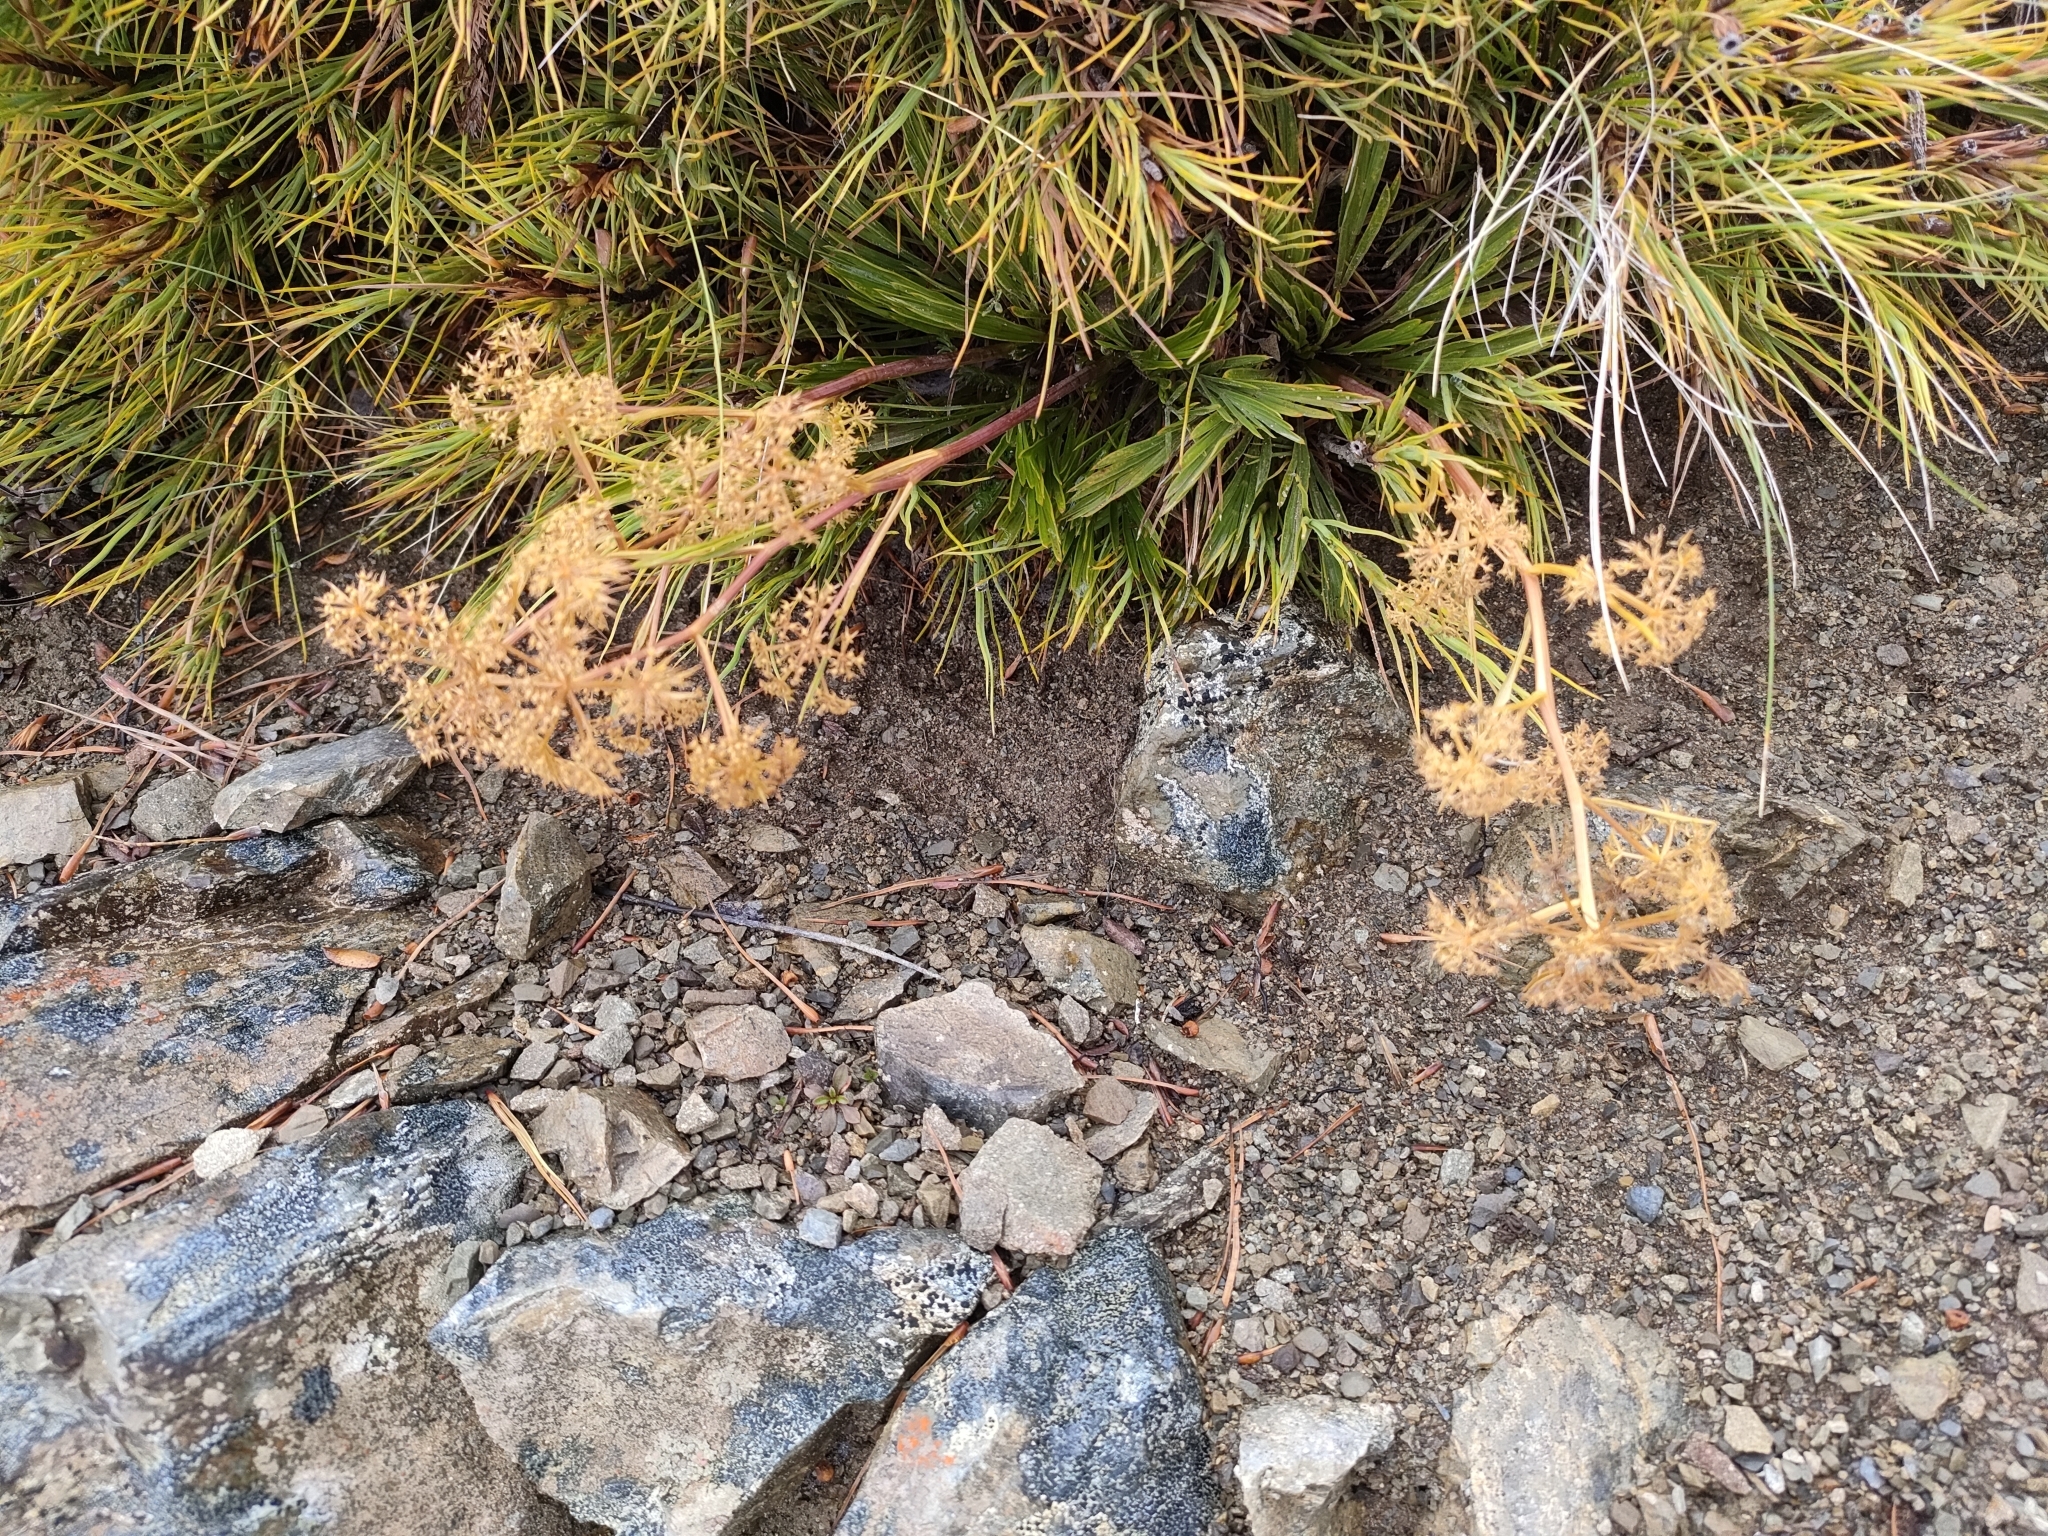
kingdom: Plantae
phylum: Tracheophyta
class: Magnoliopsida
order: Apiales
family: Apiaceae
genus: Aciphylla
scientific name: Aciphylla monroi
